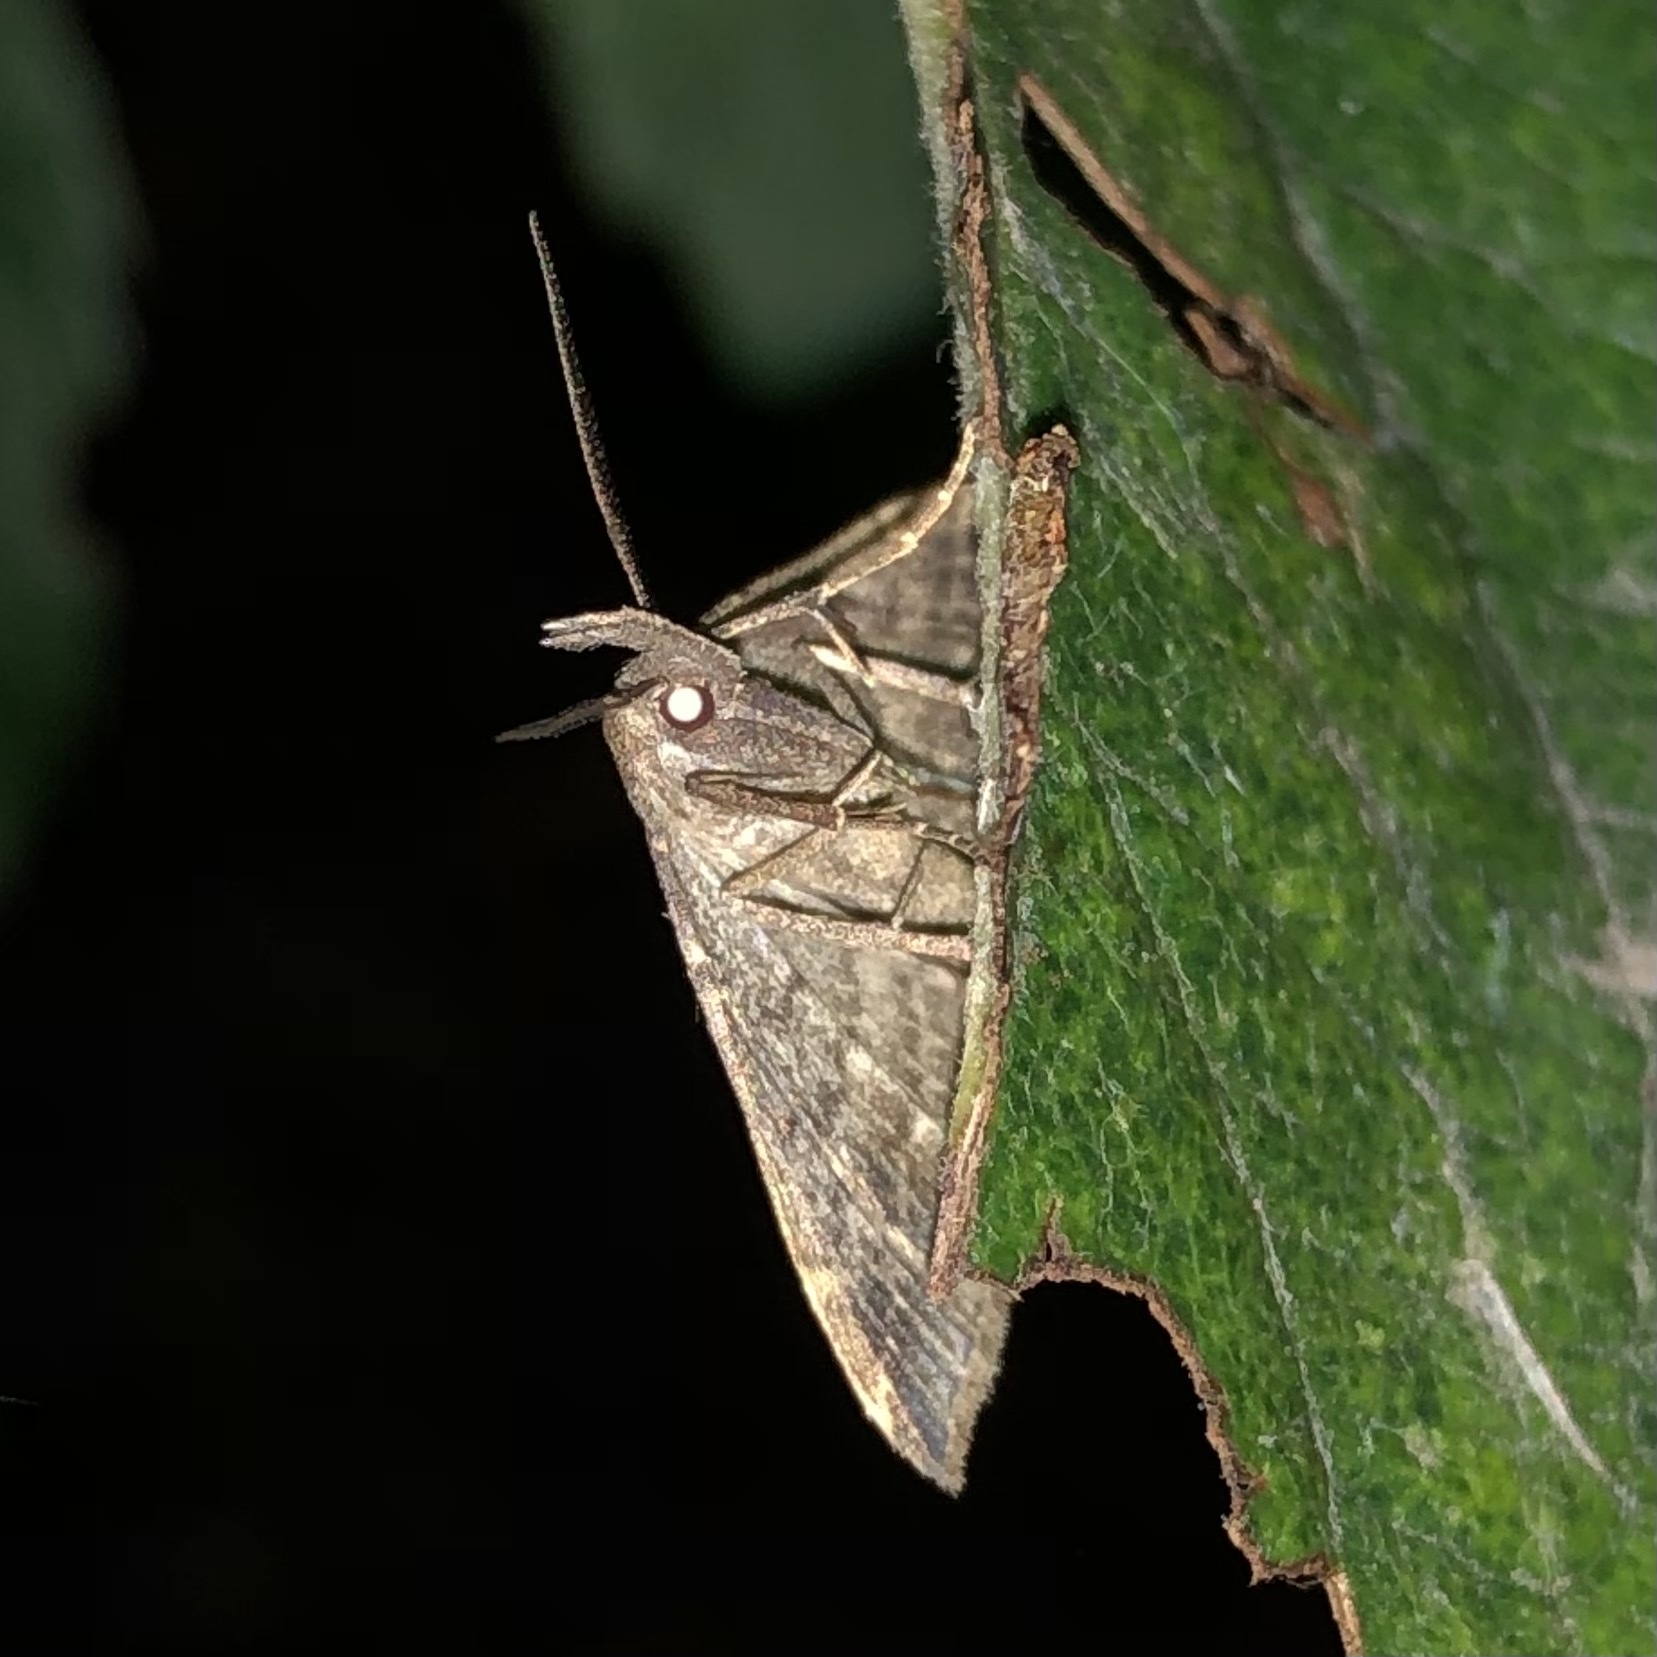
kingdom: Animalia
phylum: Arthropoda
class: Insecta
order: Lepidoptera
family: Erebidae
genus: Tetanolita
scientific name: Tetanolita palligera
